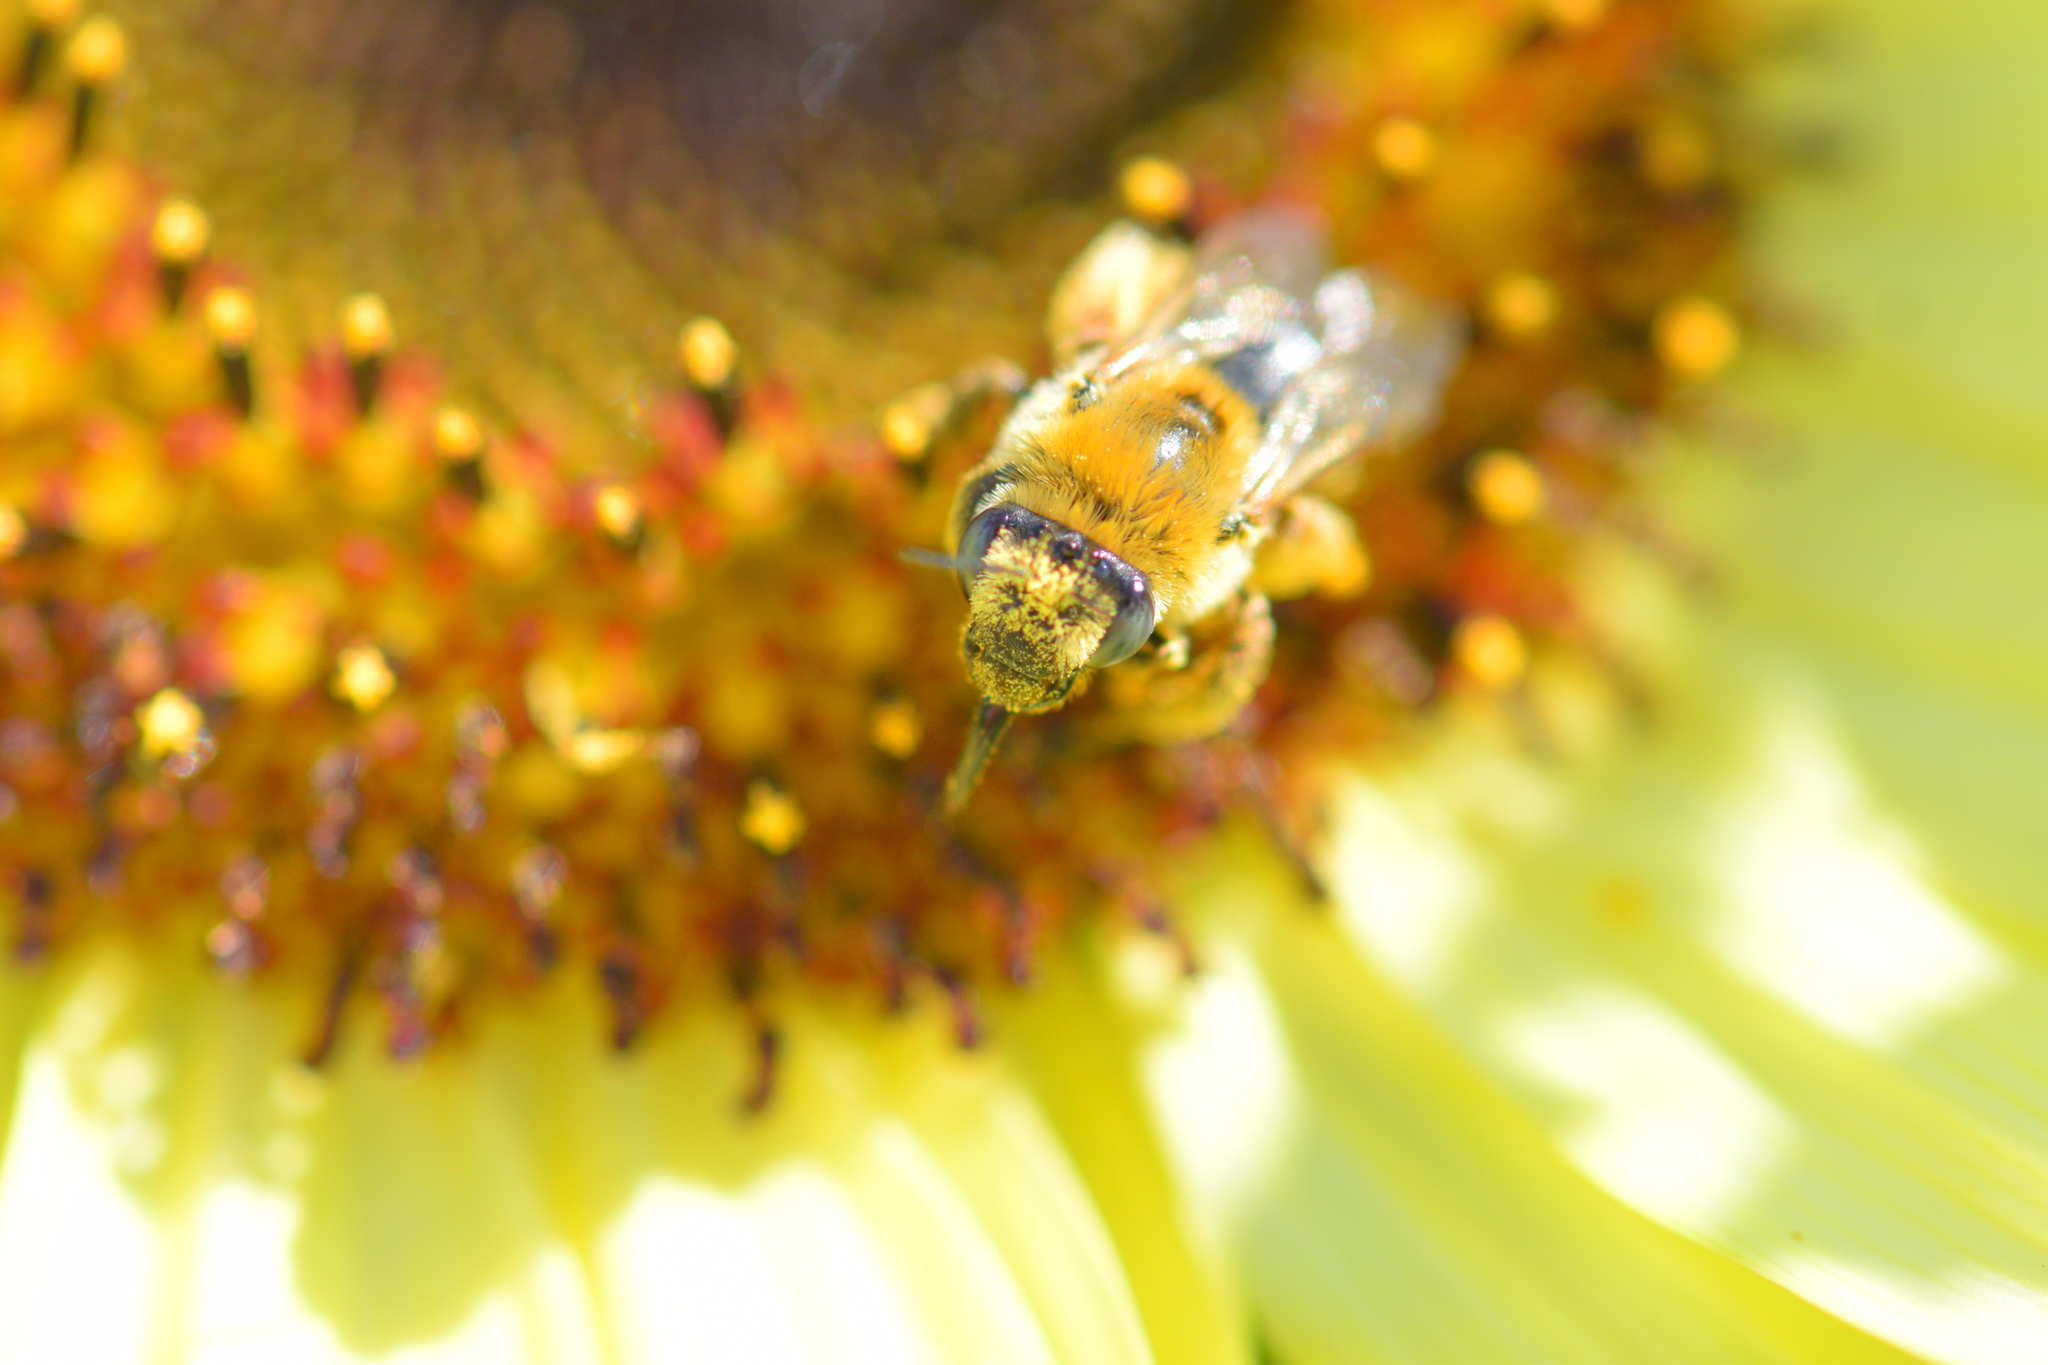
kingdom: Animalia
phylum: Arthropoda
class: Insecta
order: Hymenoptera
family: Apidae
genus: Melissodes
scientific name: Melissodes trinodis
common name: Dark-veined longhorn
